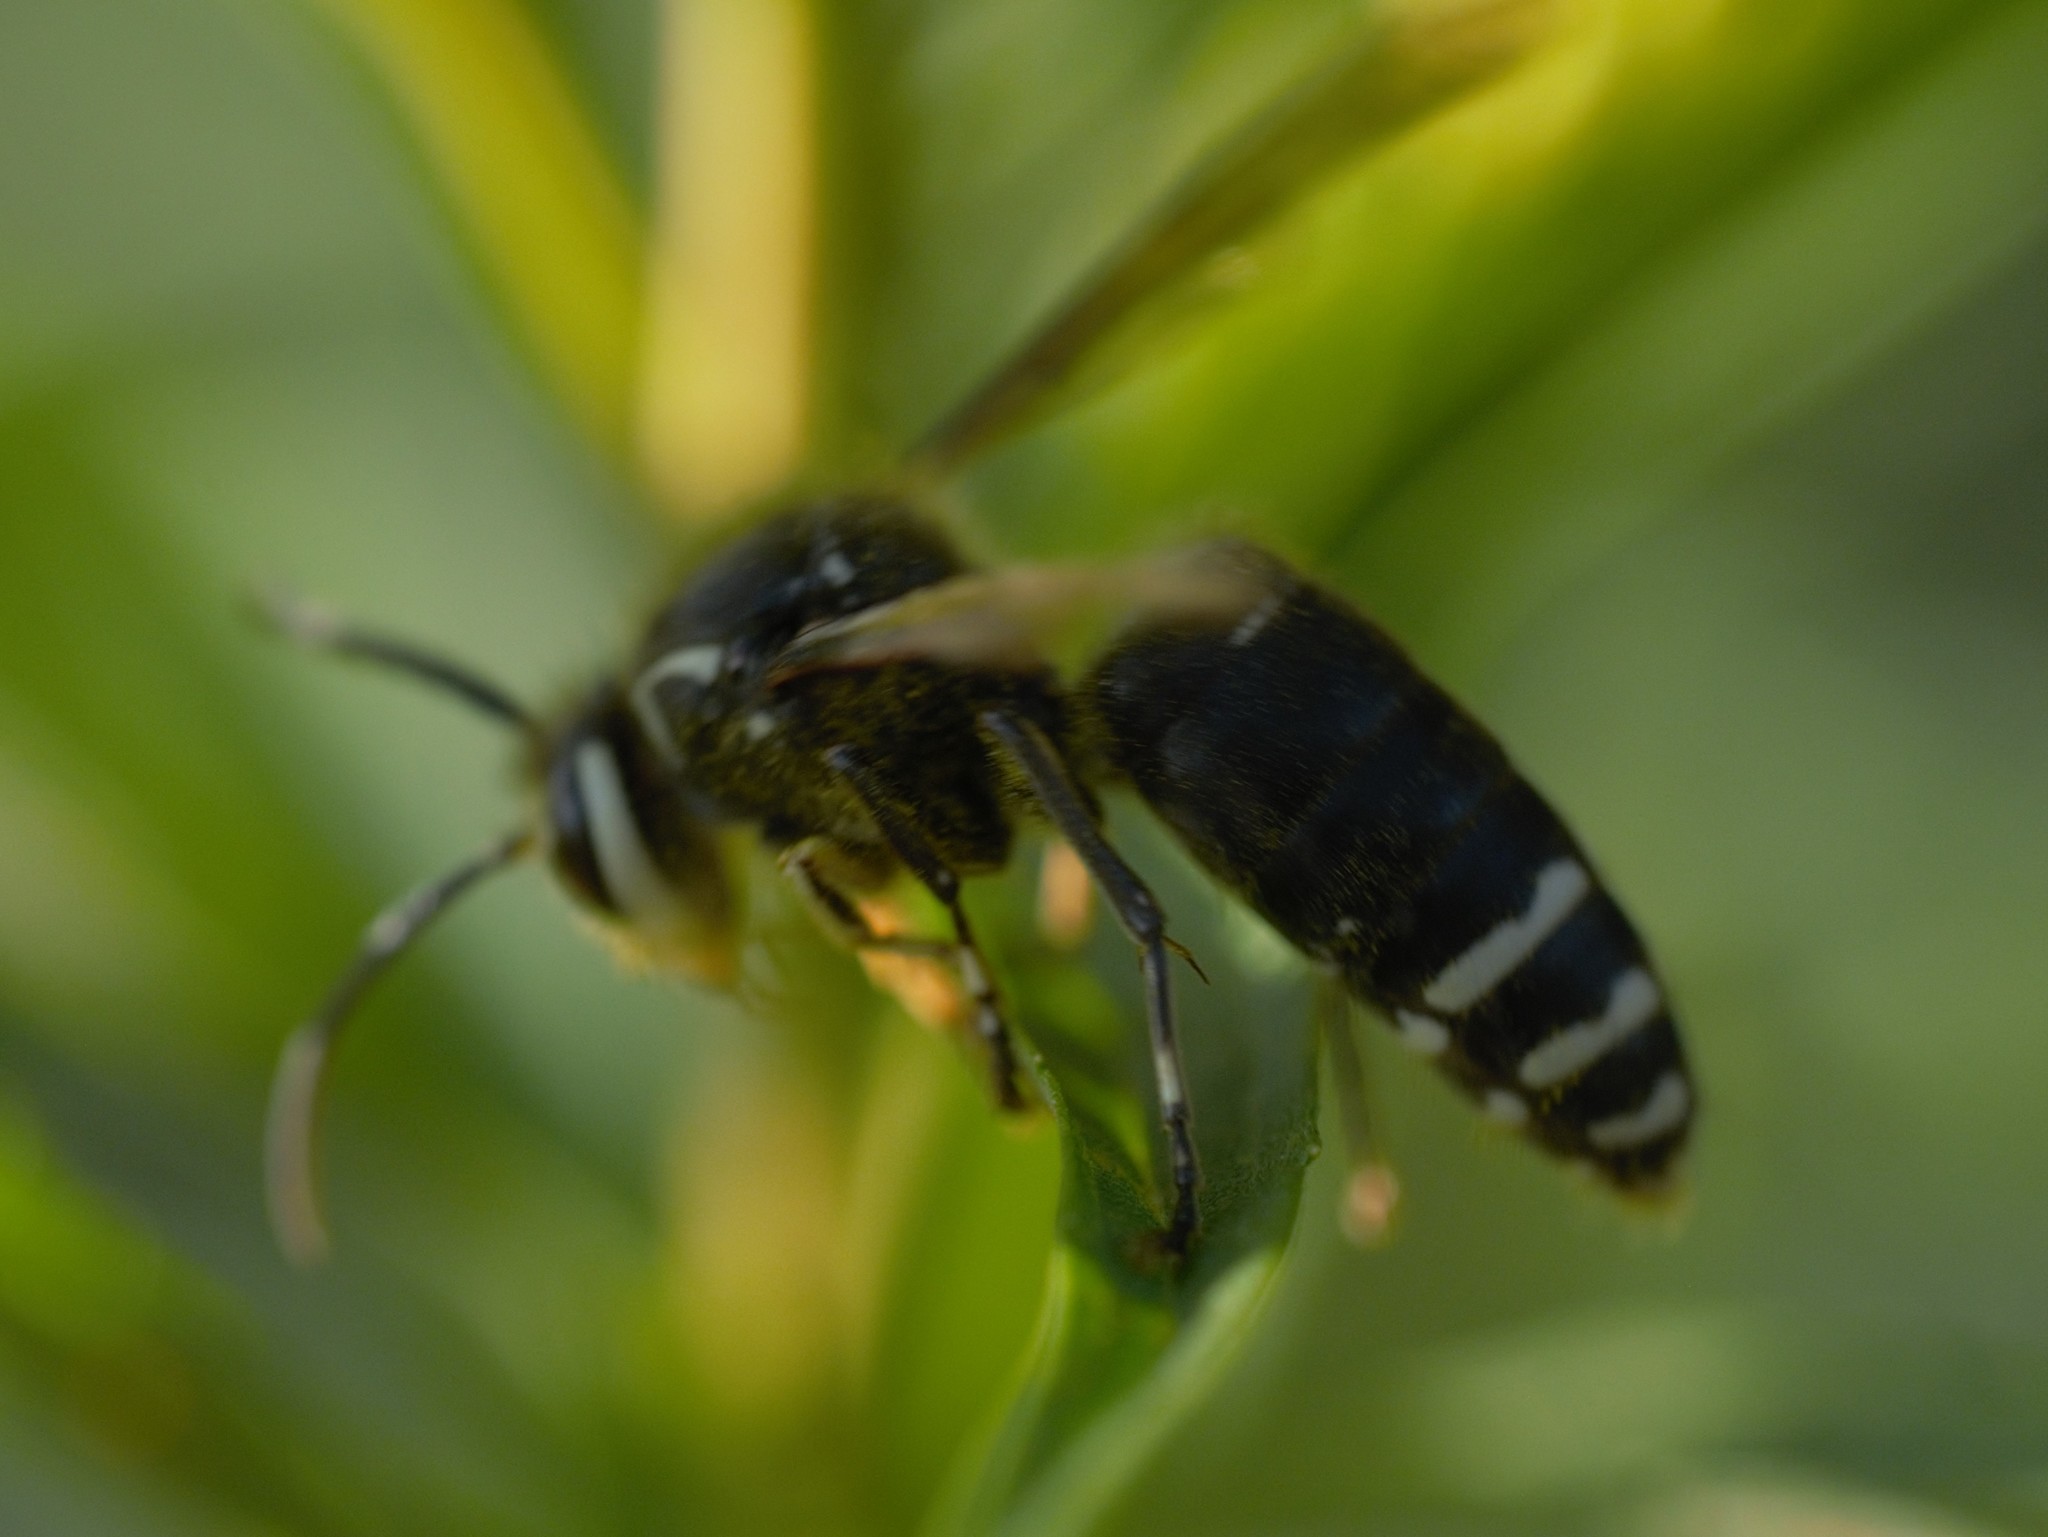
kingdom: Animalia
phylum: Arthropoda
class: Insecta
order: Hymenoptera
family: Vespidae
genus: Dolichovespula
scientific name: Dolichovespula maculata
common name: Bald-faced hornet
